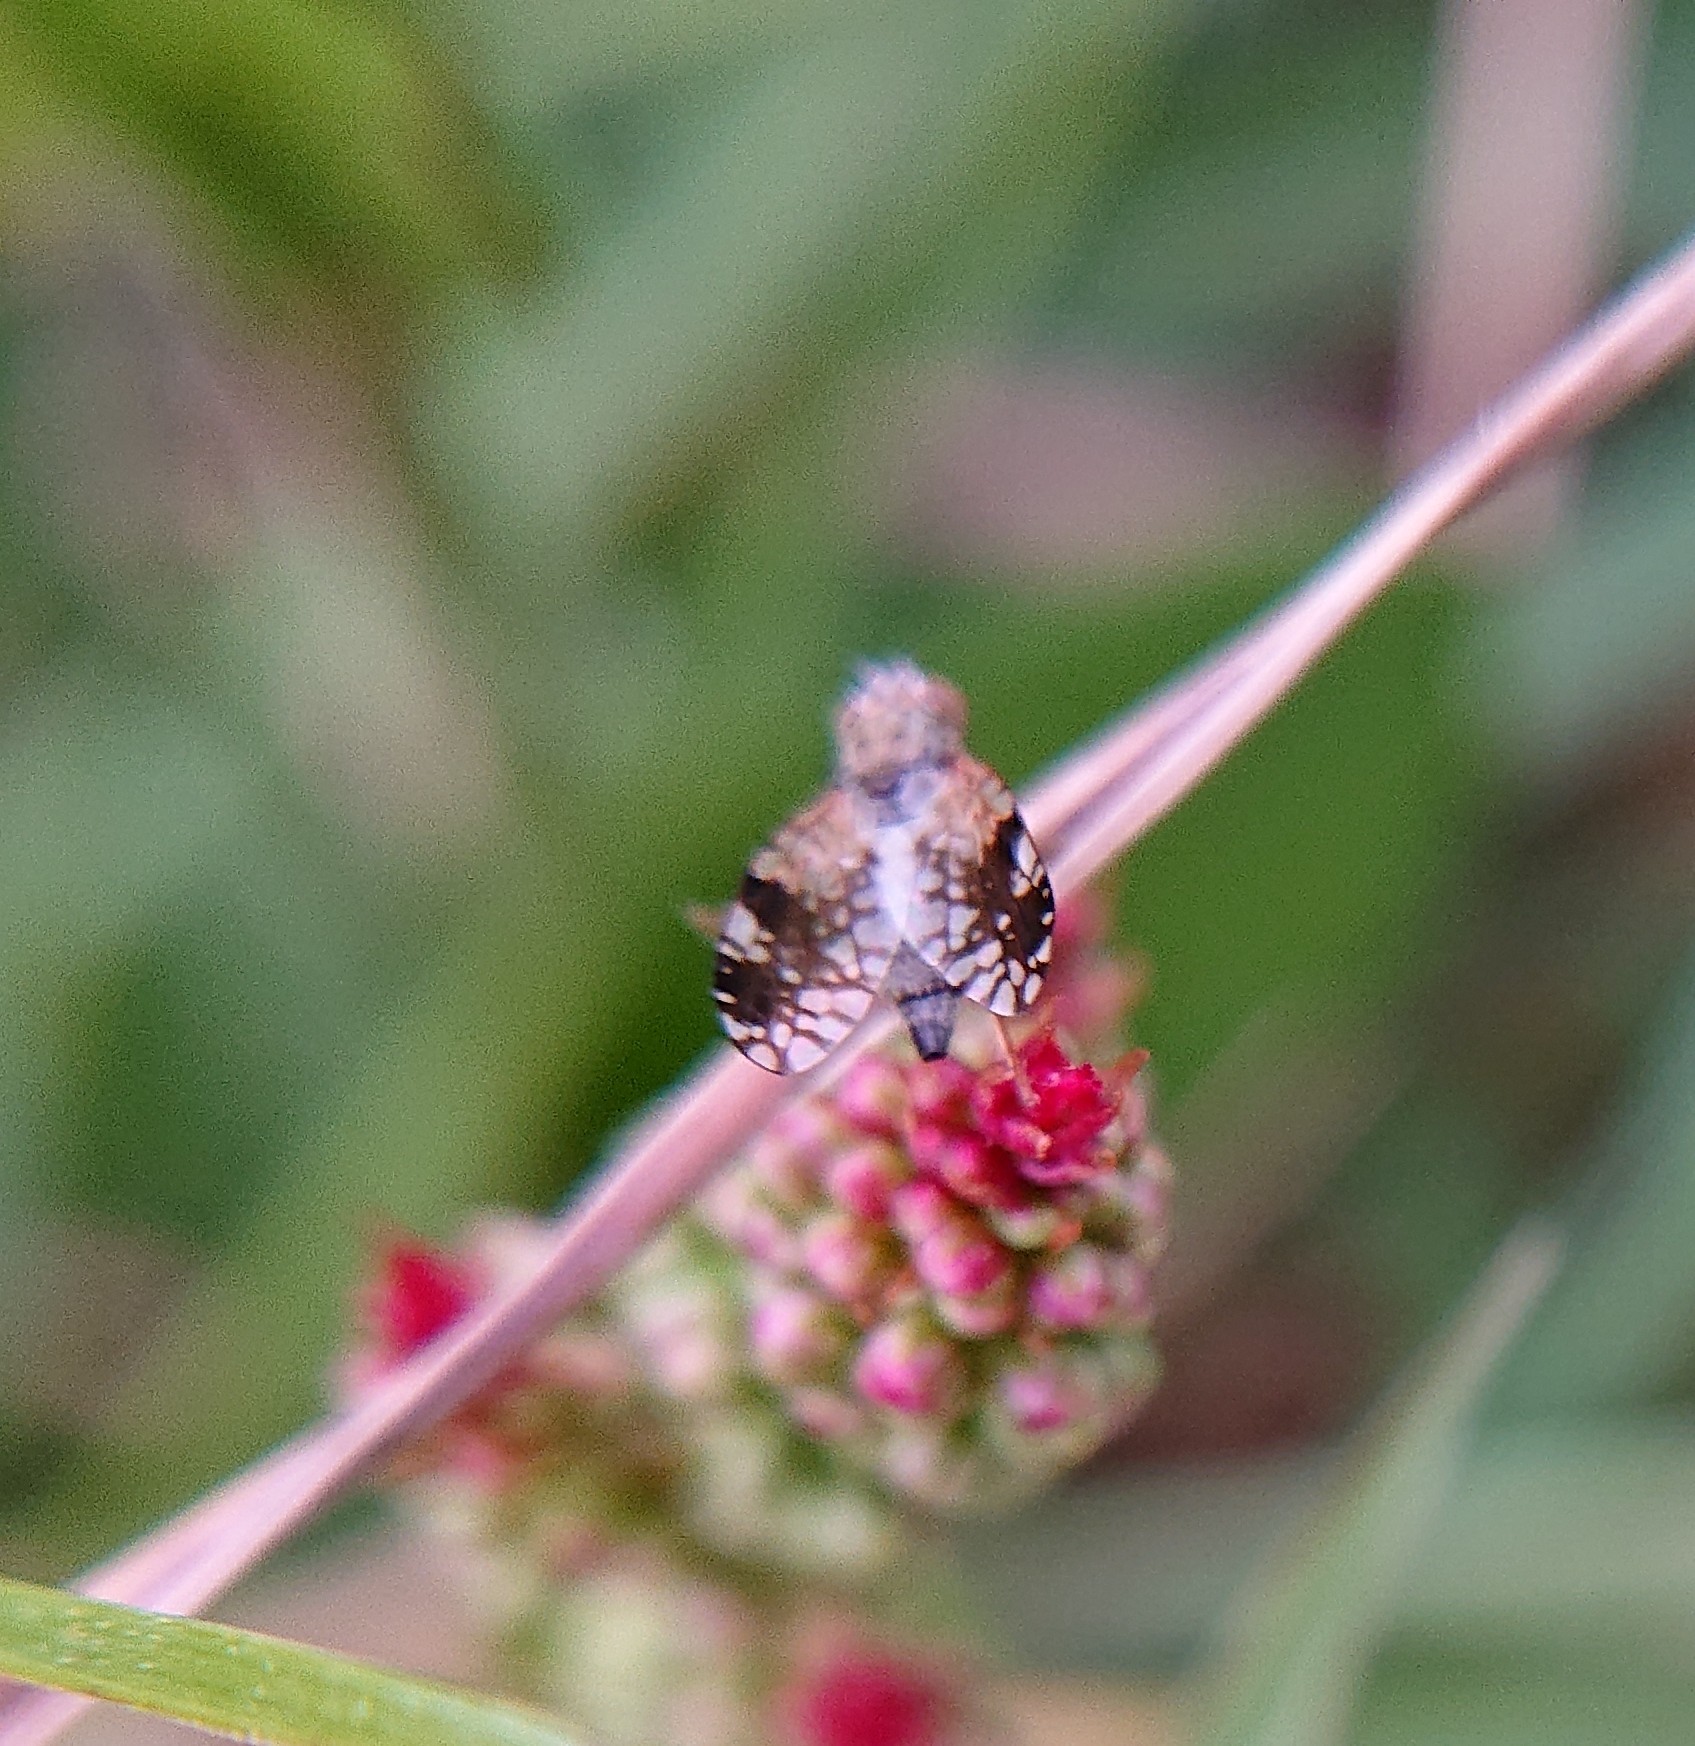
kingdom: Animalia
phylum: Arthropoda
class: Insecta
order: Diptera
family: Tephritidae
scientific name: Tephritidae
